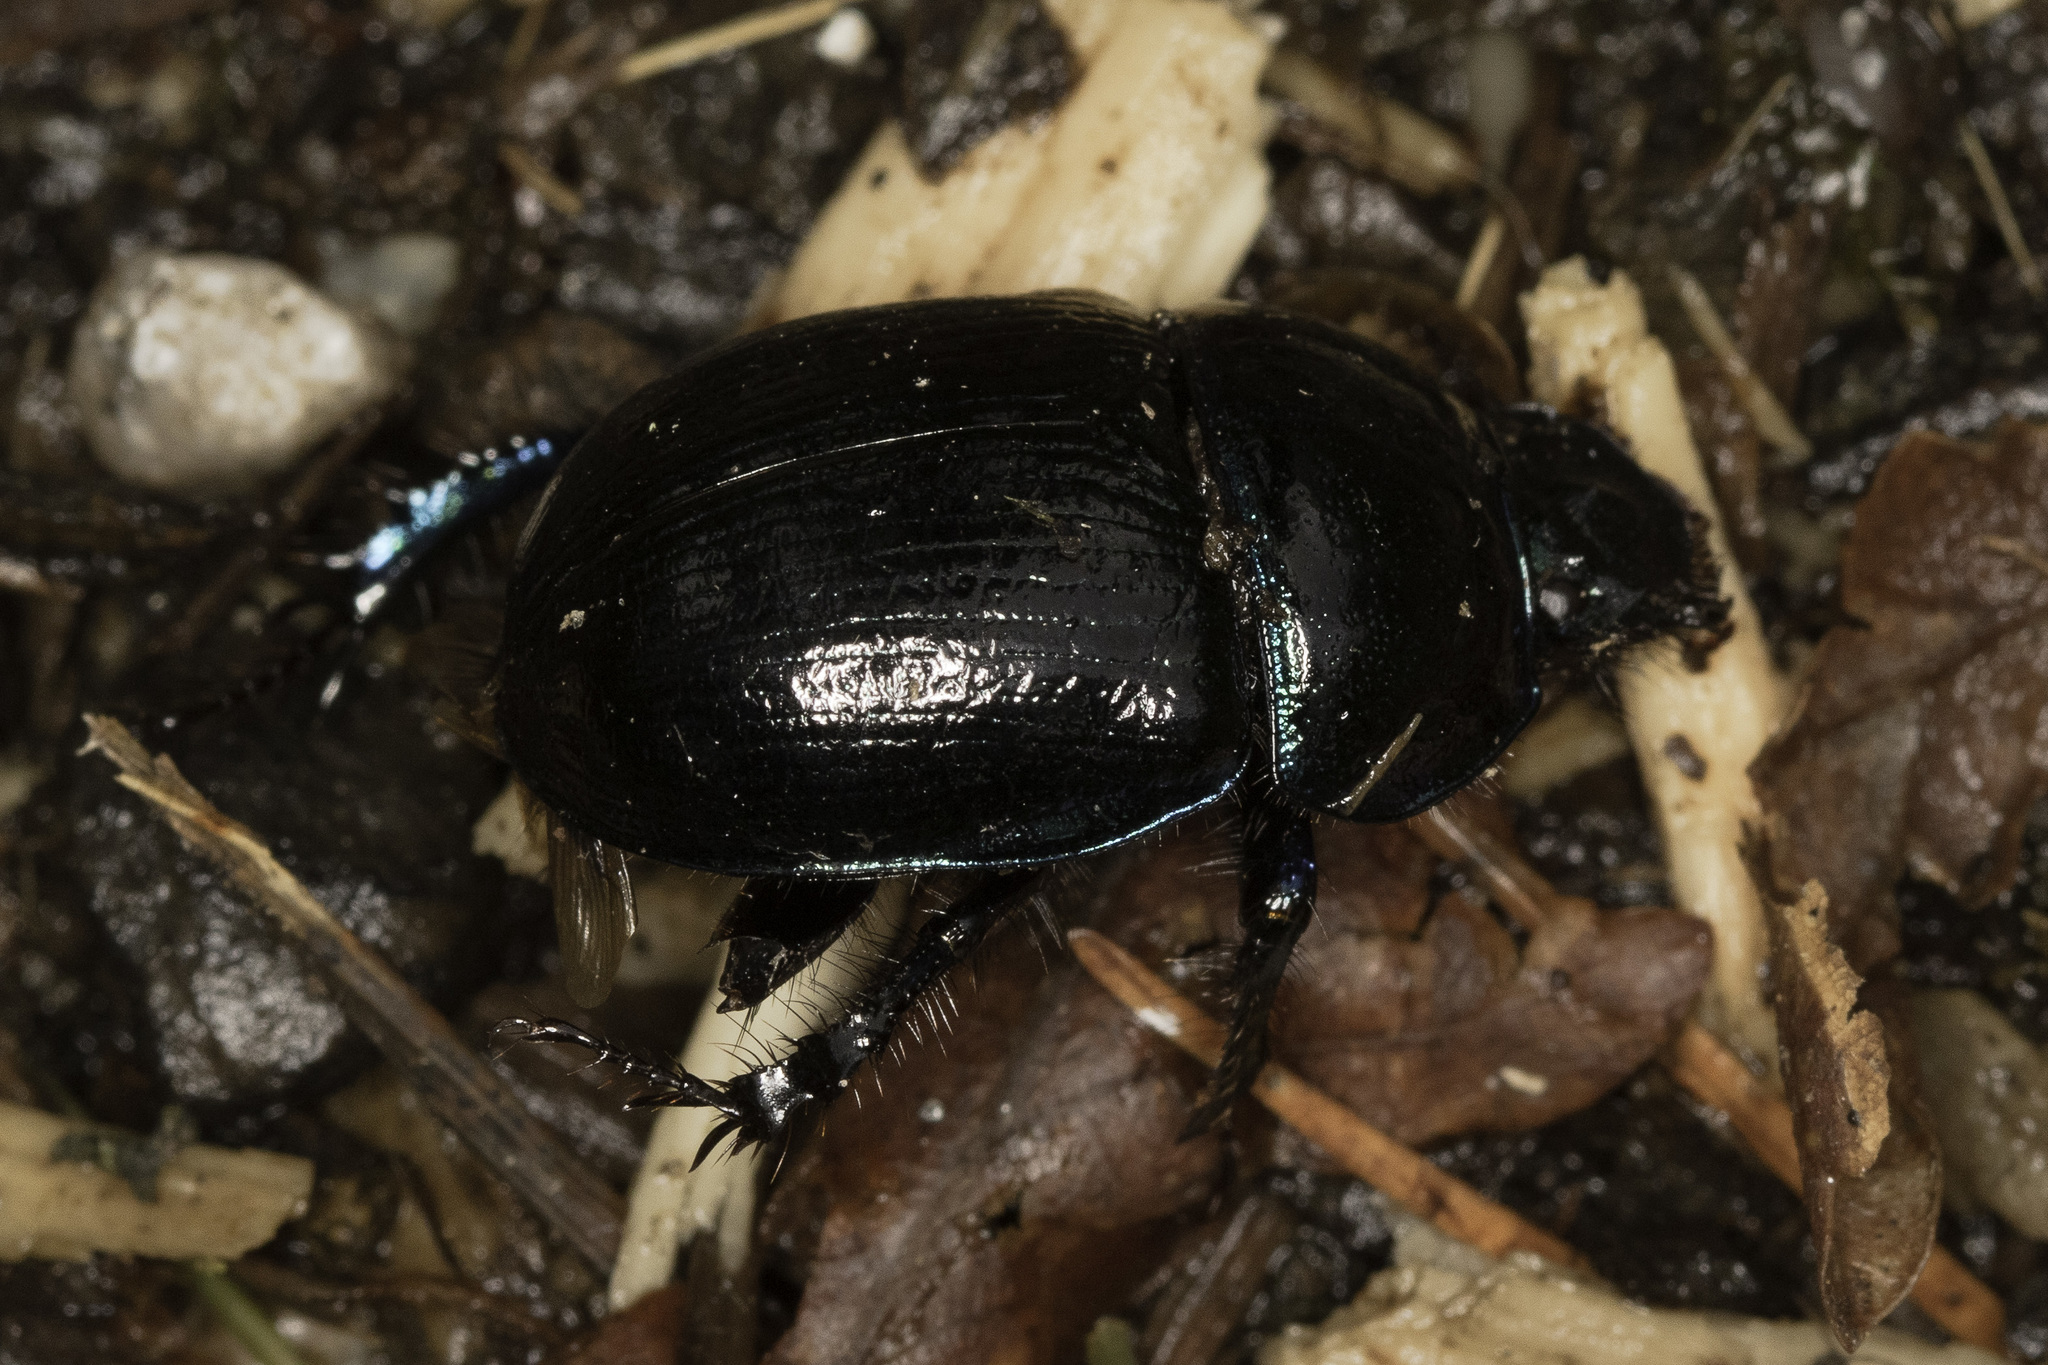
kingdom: Animalia
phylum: Arthropoda
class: Insecta
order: Coleoptera
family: Geotrupidae
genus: Anoplotrupes
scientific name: Anoplotrupes stercorosus
